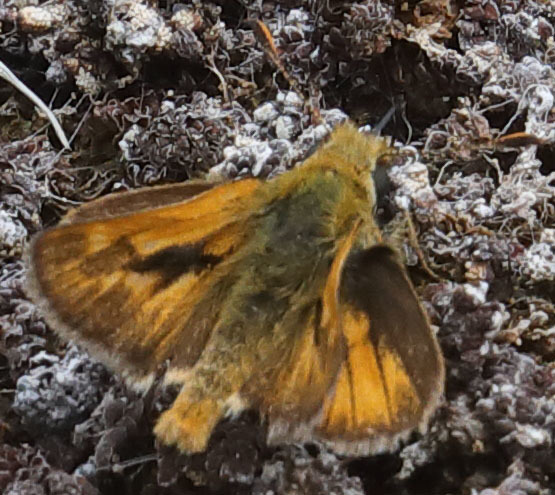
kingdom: Animalia
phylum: Arthropoda
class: Insecta
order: Lepidoptera
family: Hesperiidae
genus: Ochlodes
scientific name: Ochlodes agricola
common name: Rural skipper
